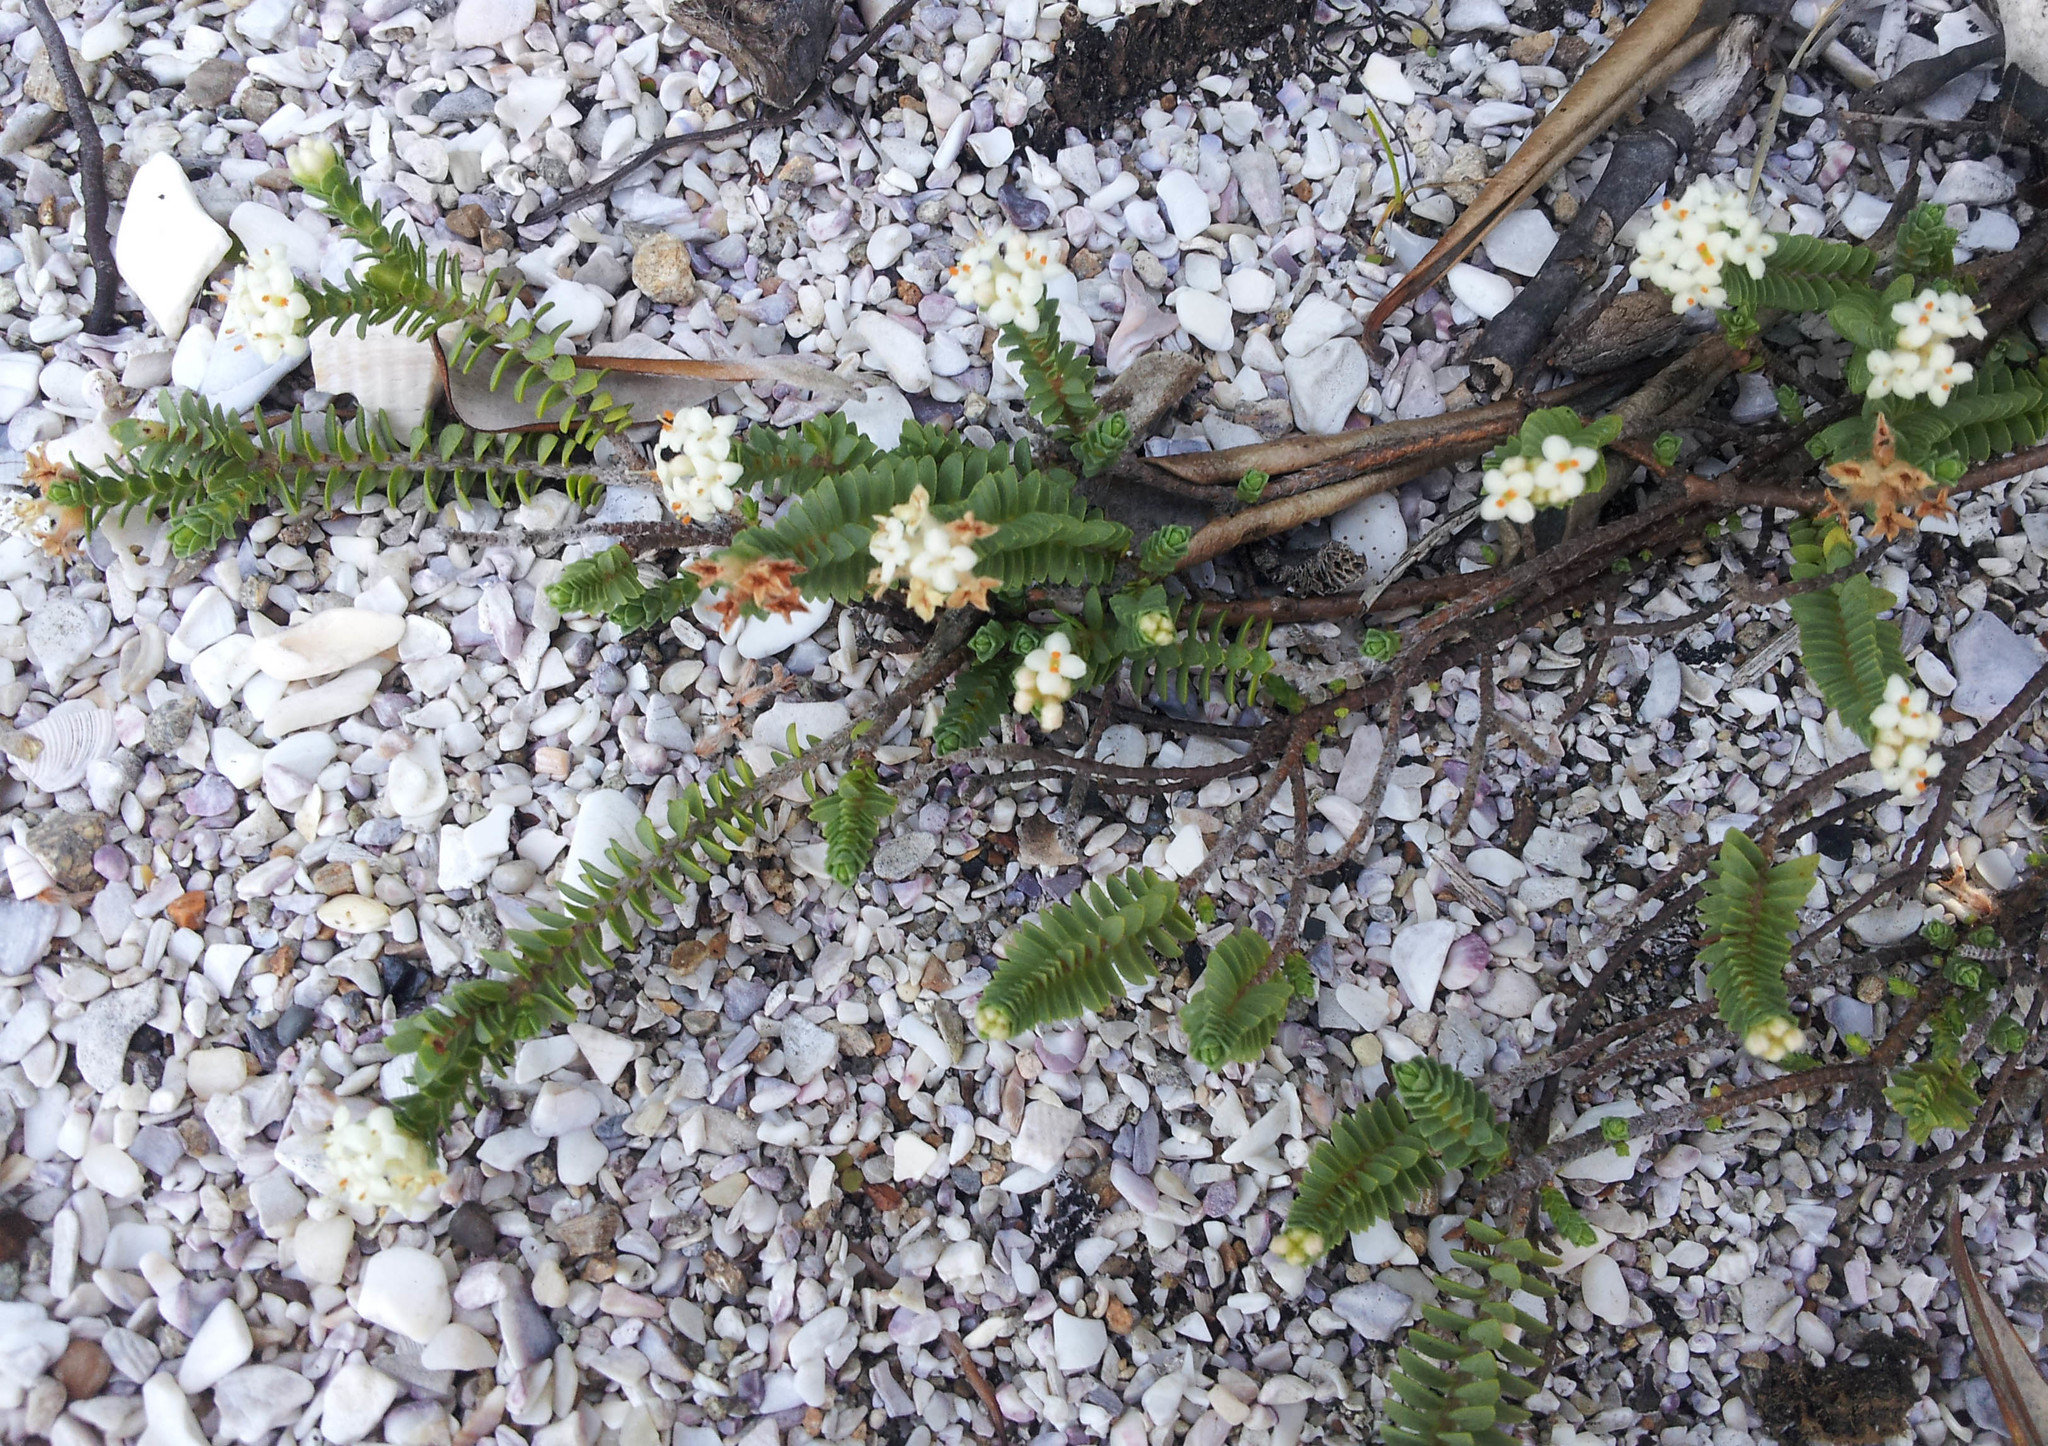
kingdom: Plantae
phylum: Tracheophyta
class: Magnoliopsida
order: Malvales
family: Thymelaeaceae
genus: Pimelea
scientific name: Pimelea xenica
